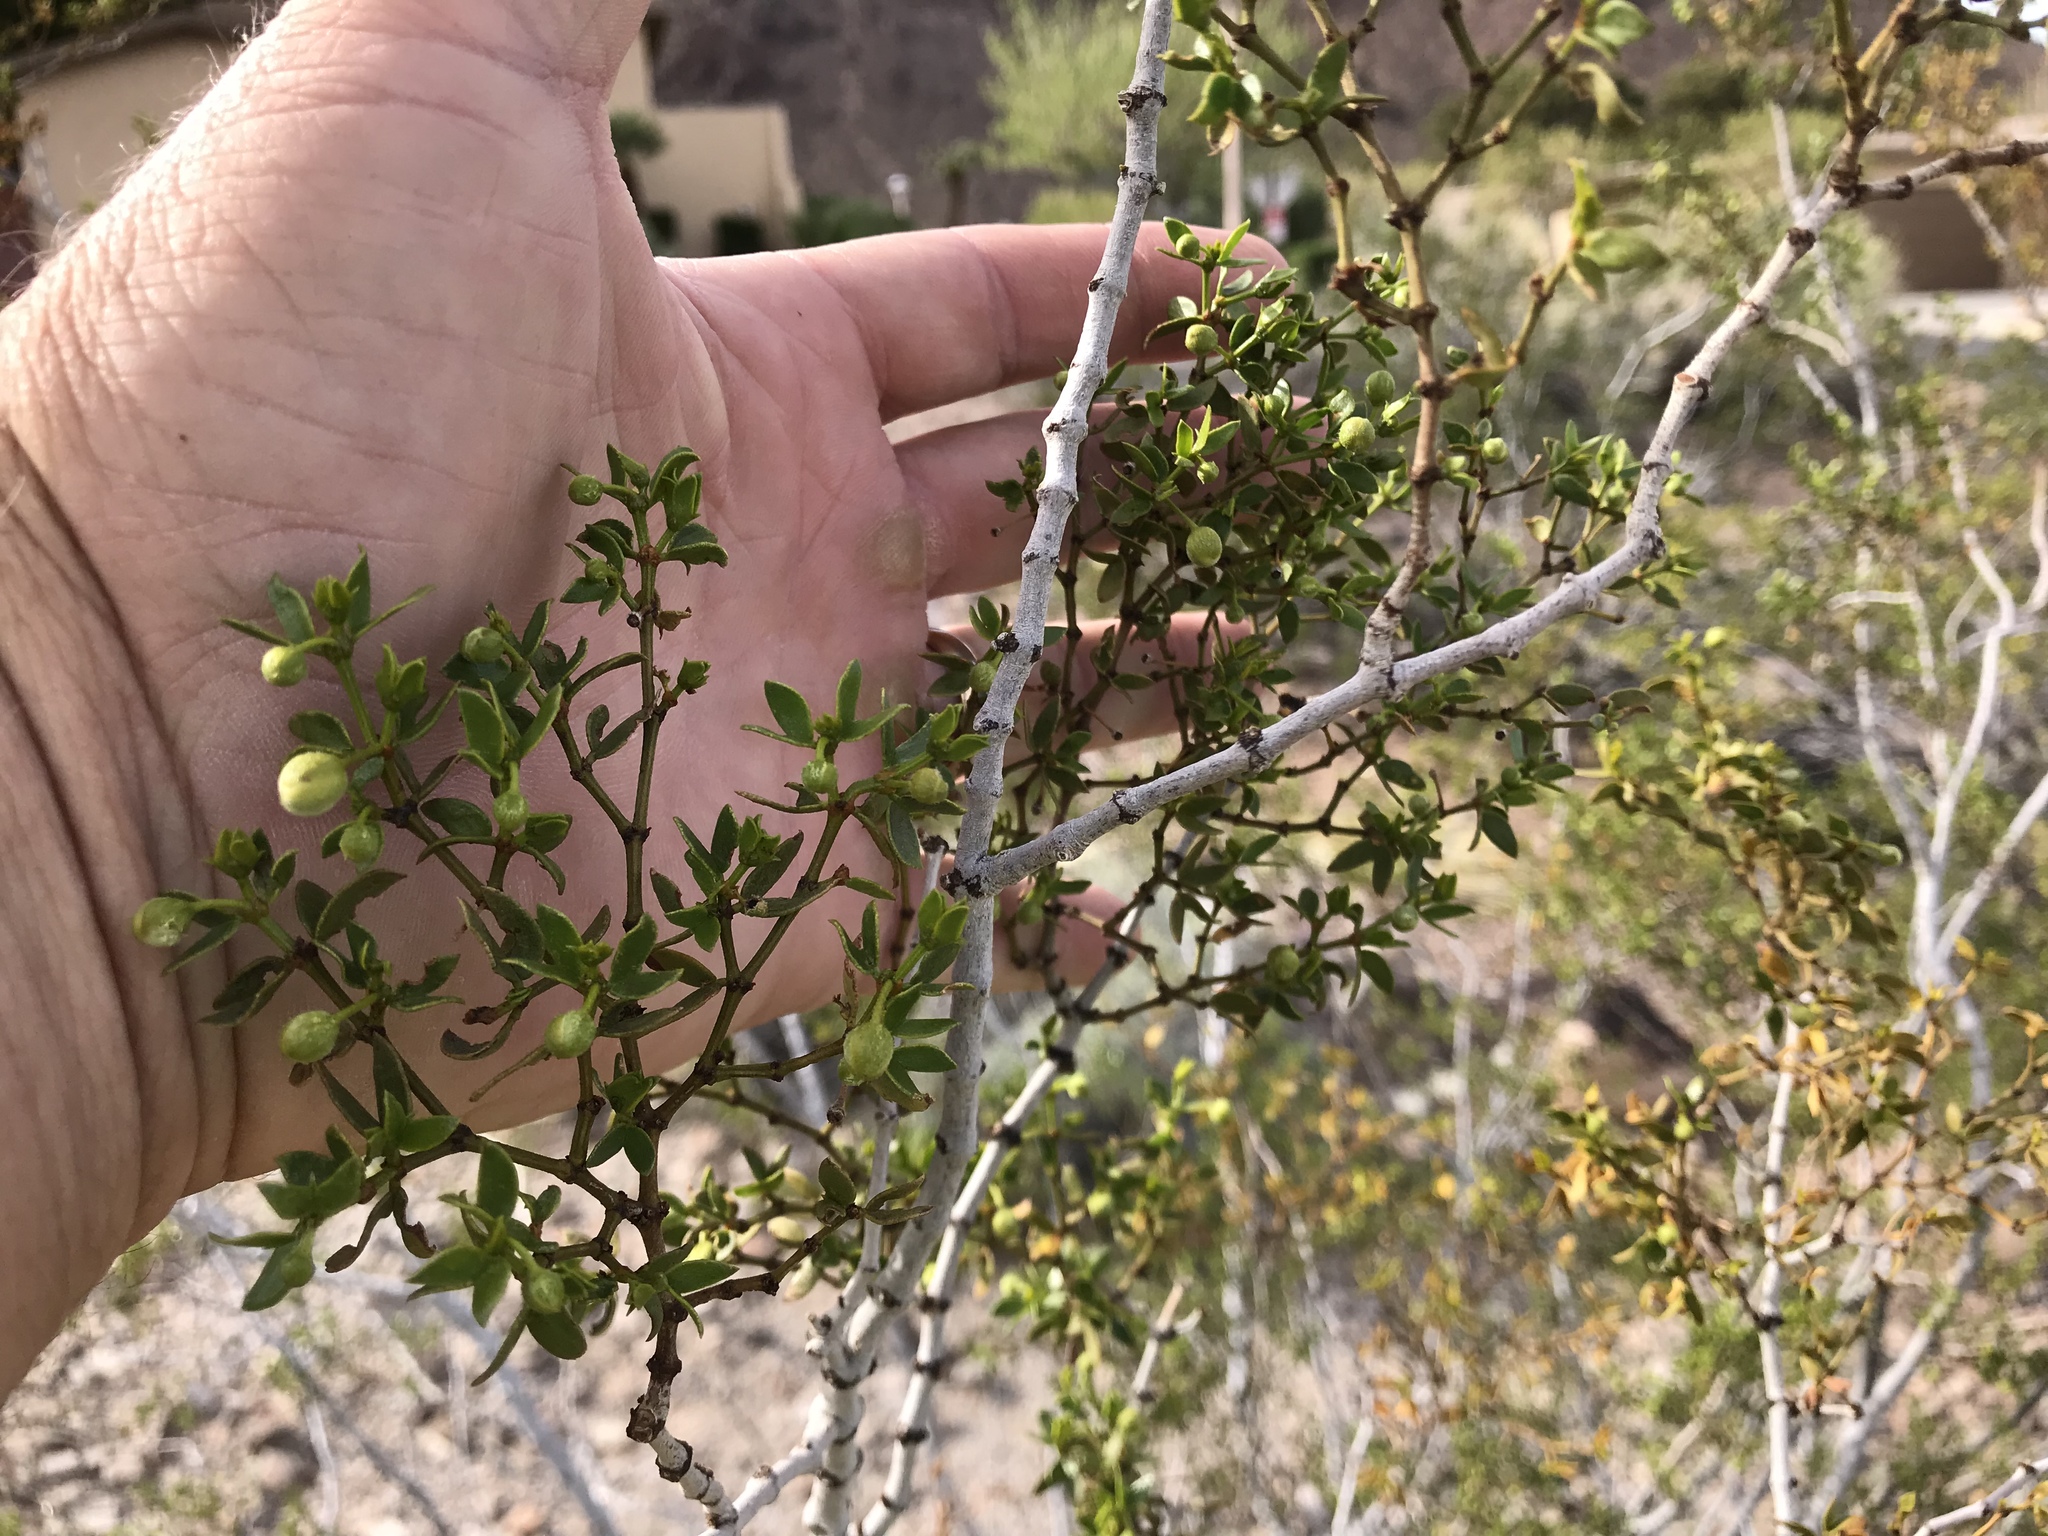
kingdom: Plantae
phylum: Tracheophyta
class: Magnoliopsida
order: Zygophyllales
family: Zygophyllaceae
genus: Larrea
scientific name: Larrea tridentata
